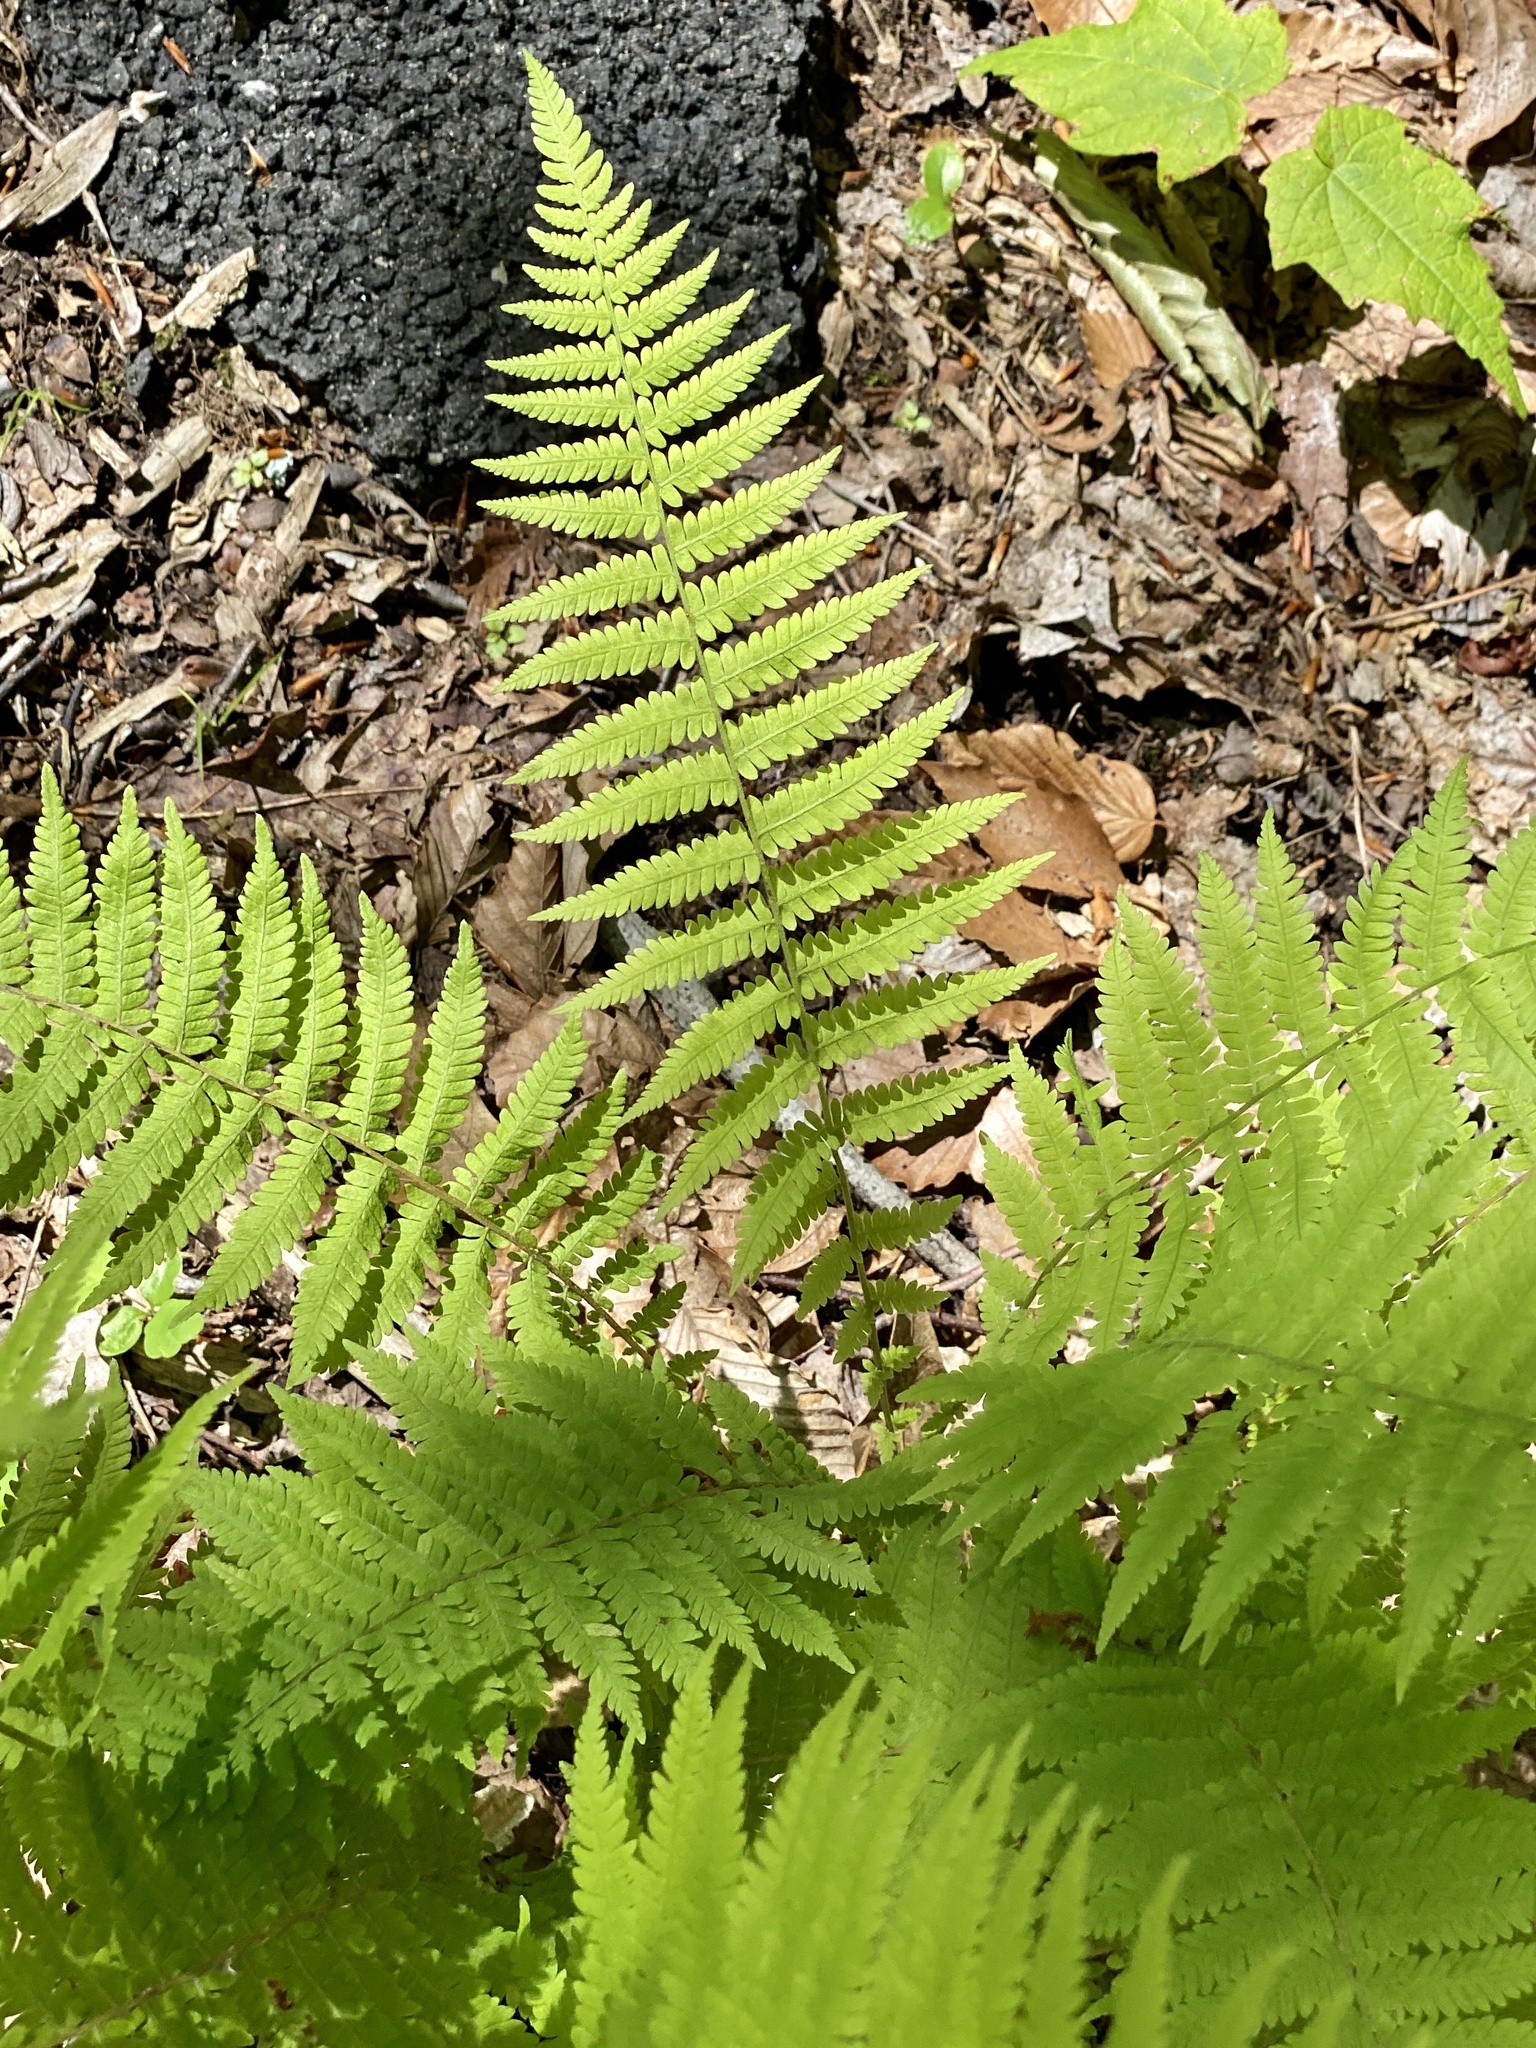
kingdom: Plantae
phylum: Tracheophyta
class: Polypodiopsida
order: Polypodiales
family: Thelypteridaceae
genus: Amauropelta
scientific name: Amauropelta noveboracensis
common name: New york fern
